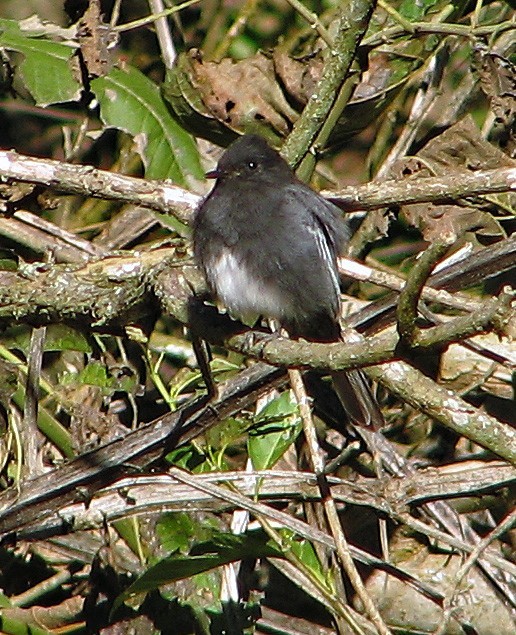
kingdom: Animalia
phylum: Chordata
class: Aves
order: Passeriformes
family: Tyrannidae
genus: Sayornis
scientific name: Sayornis nigricans
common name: Black phoebe
